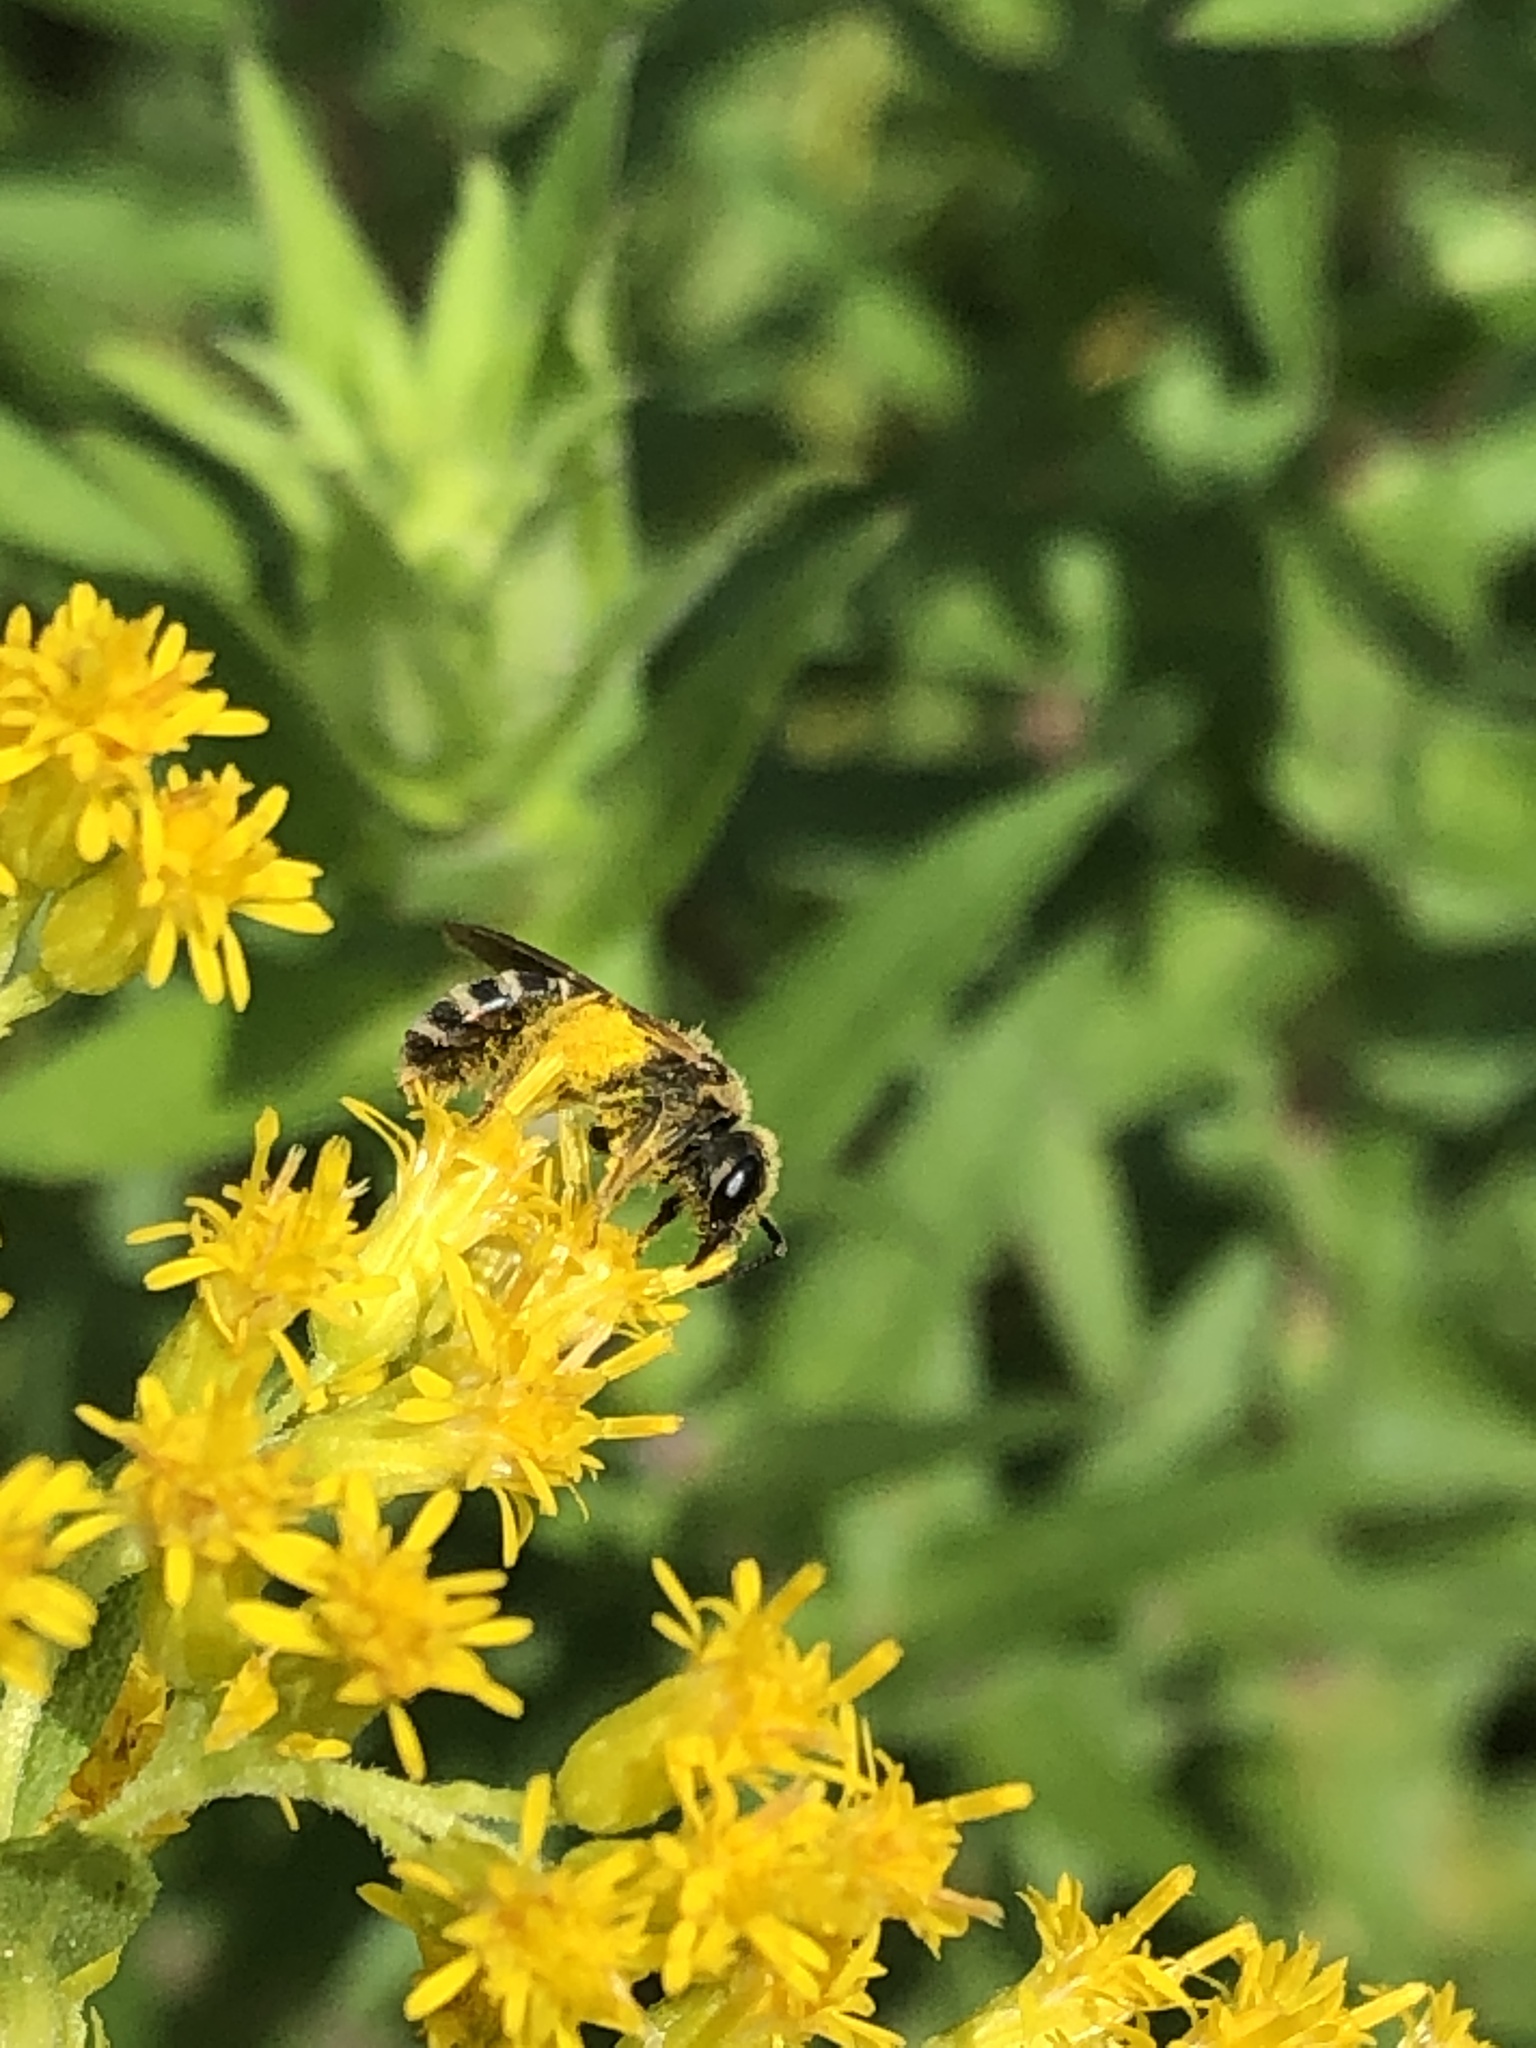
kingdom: Animalia
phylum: Arthropoda
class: Insecta
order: Hymenoptera
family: Halictidae
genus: Halictus
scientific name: Halictus ligatus
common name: Ligated furrow bee
